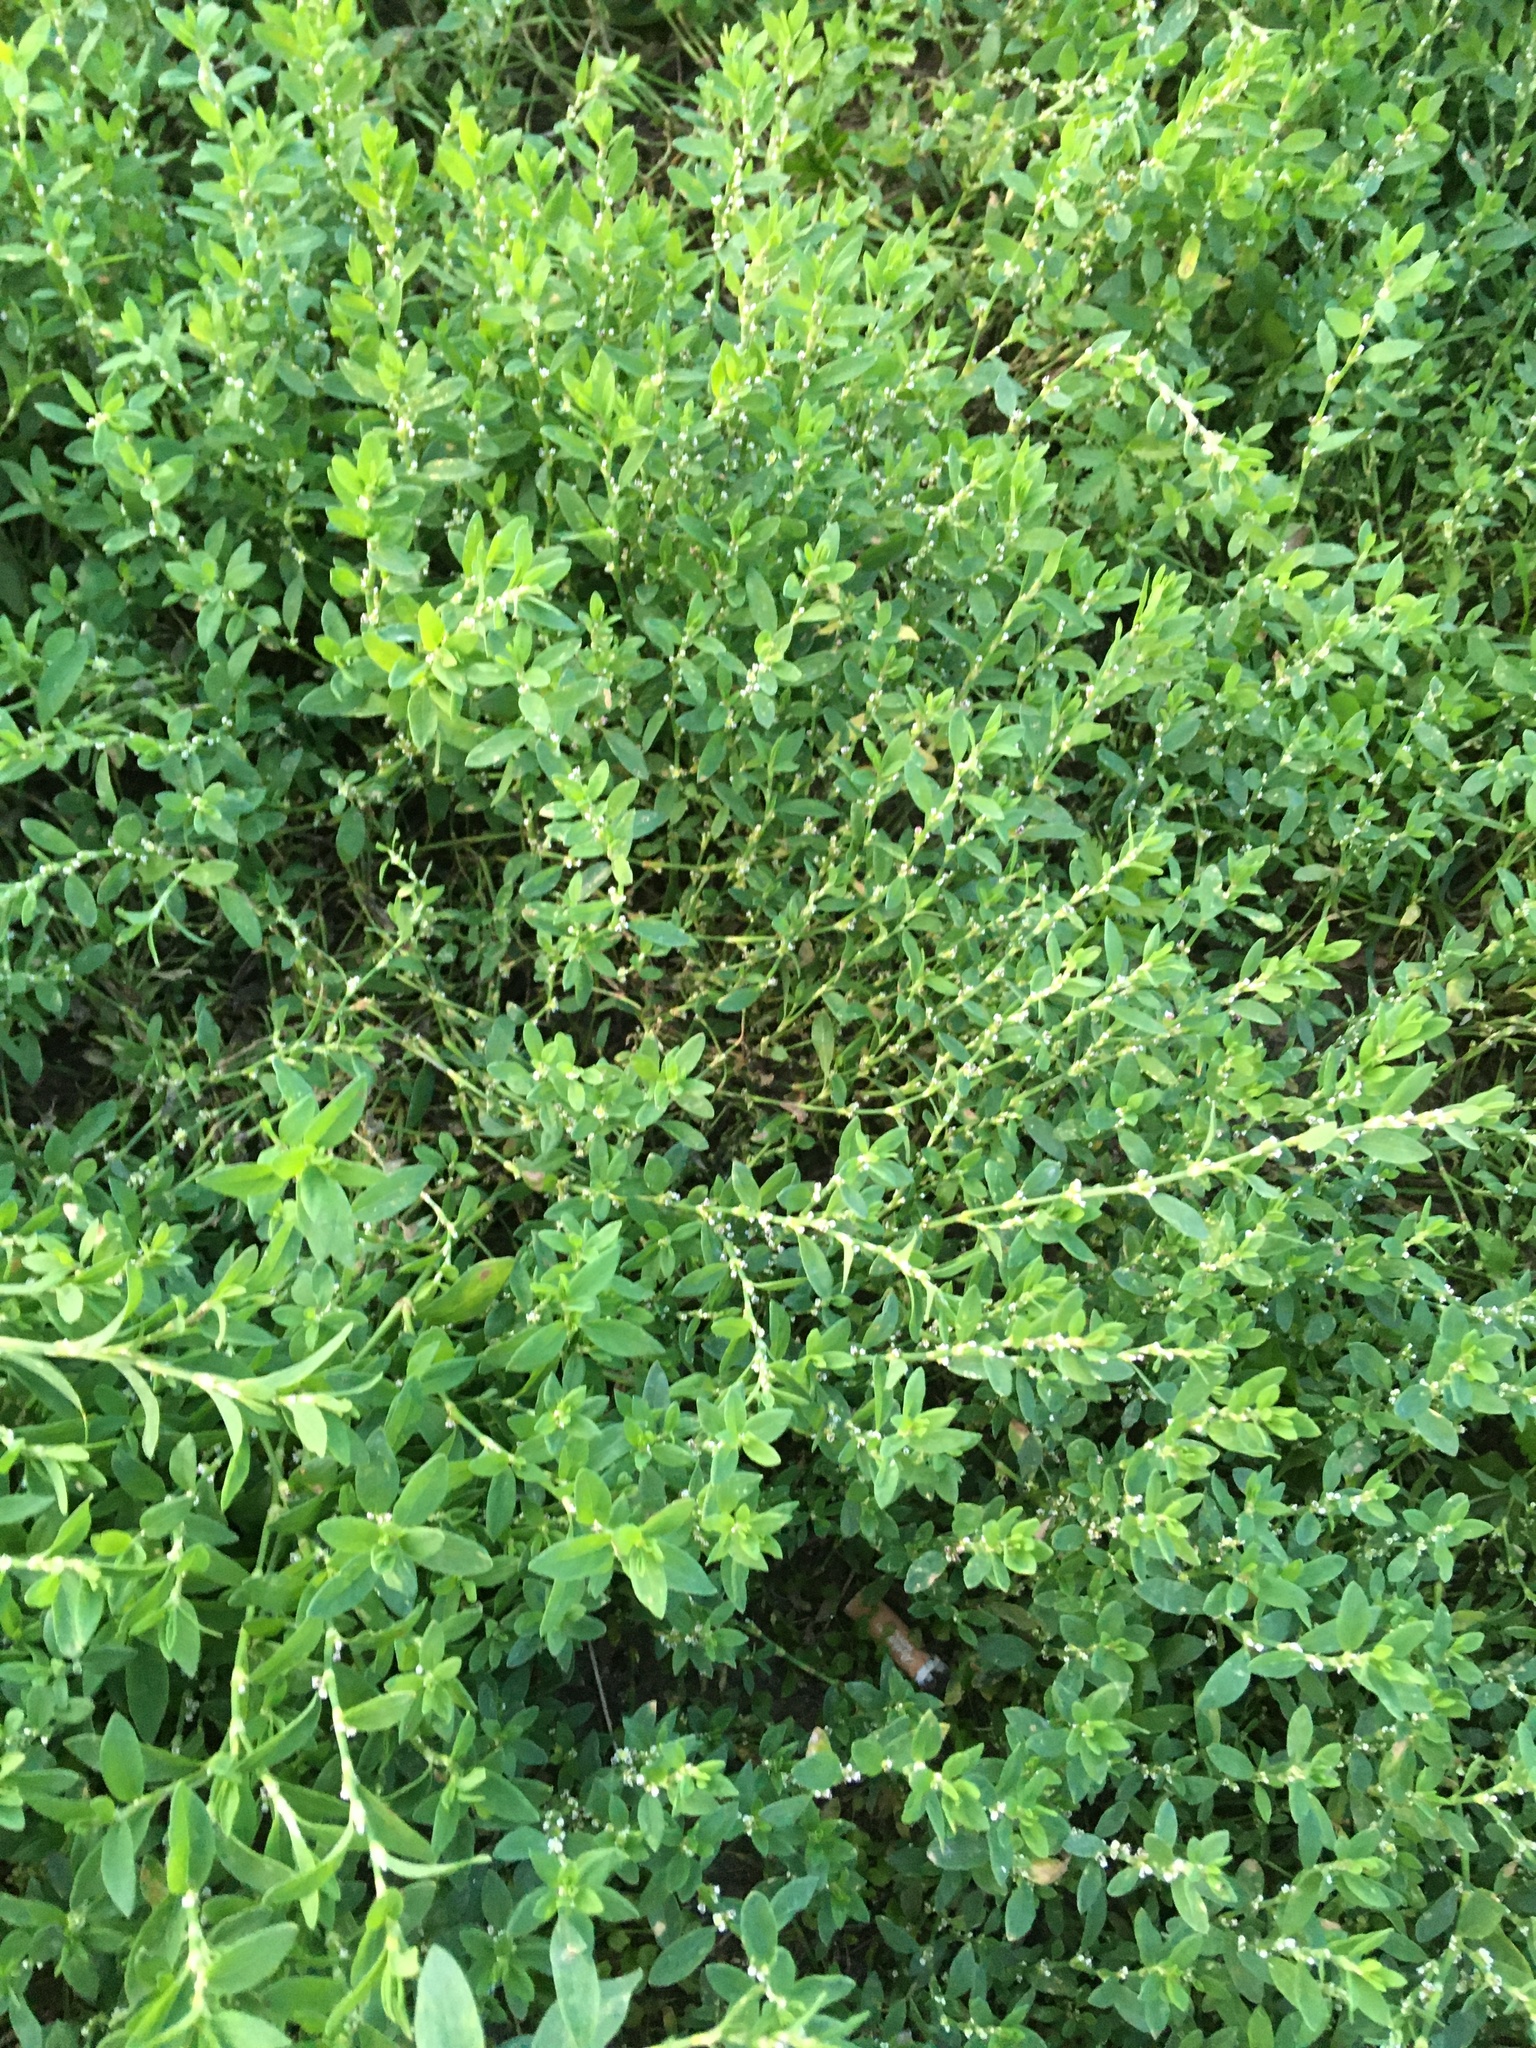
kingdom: Plantae
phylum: Tracheophyta
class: Magnoliopsida
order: Caryophyllales
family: Polygonaceae
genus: Polygonum
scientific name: Polygonum aviculare
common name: Prostrate knotweed
